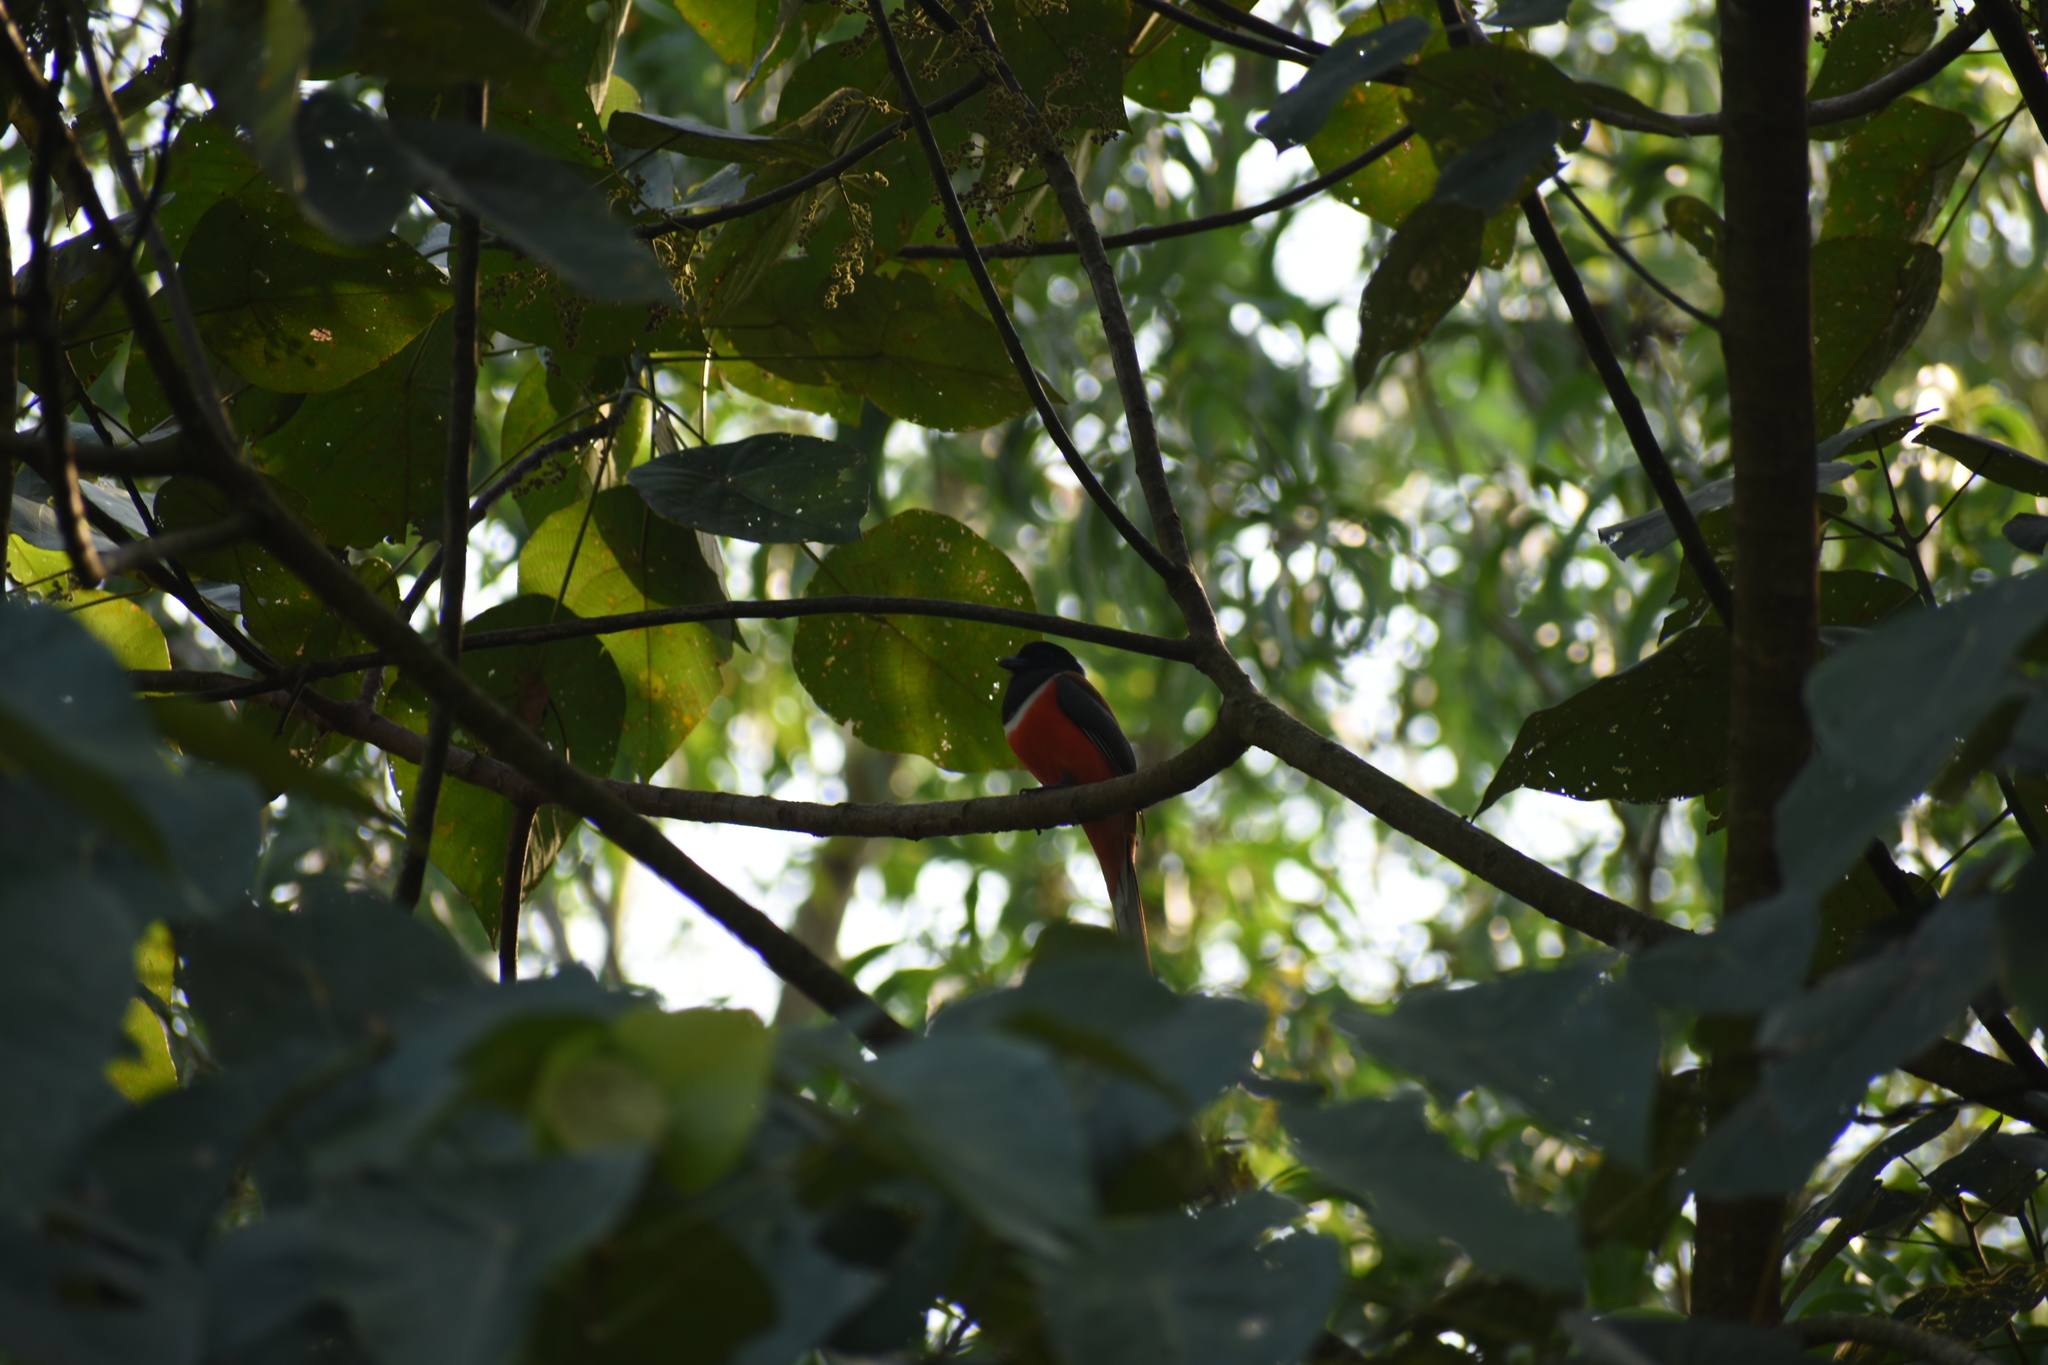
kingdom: Animalia
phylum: Chordata
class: Aves
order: Trogoniformes
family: Trogonidae
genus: Harpactes
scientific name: Harpactes fasciatus
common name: Malabar trogon
